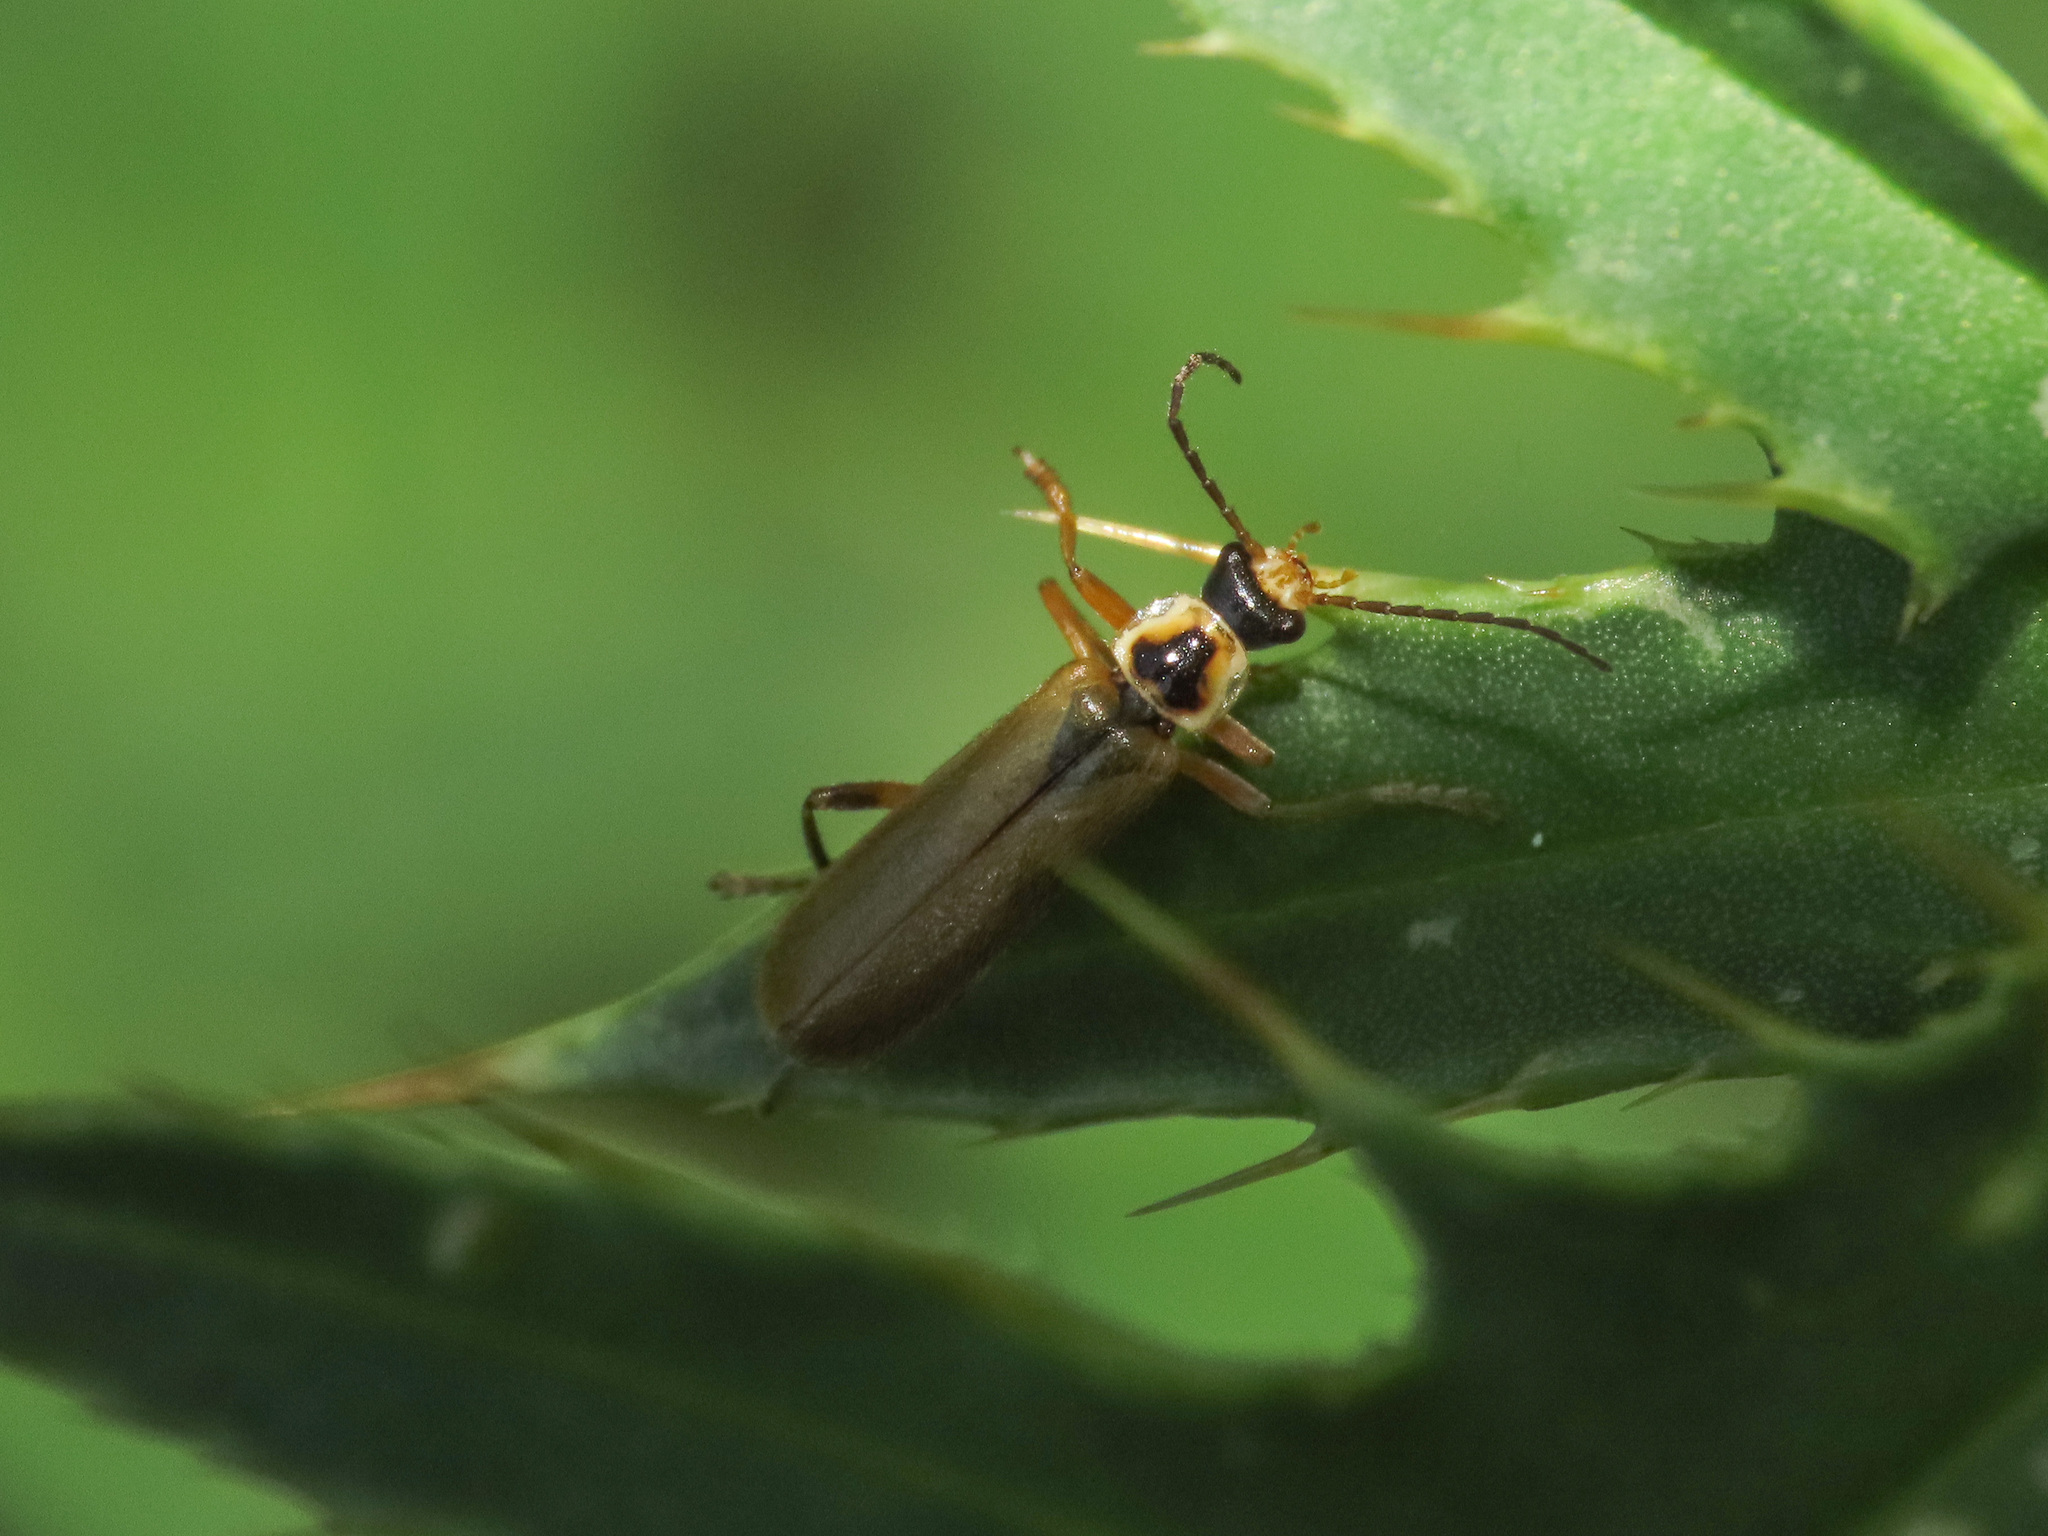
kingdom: Animalia
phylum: Arthropoda
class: Insecta
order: Coleoptera
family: Cantharidae
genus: Cantharis
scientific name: Cantharis decipiens
